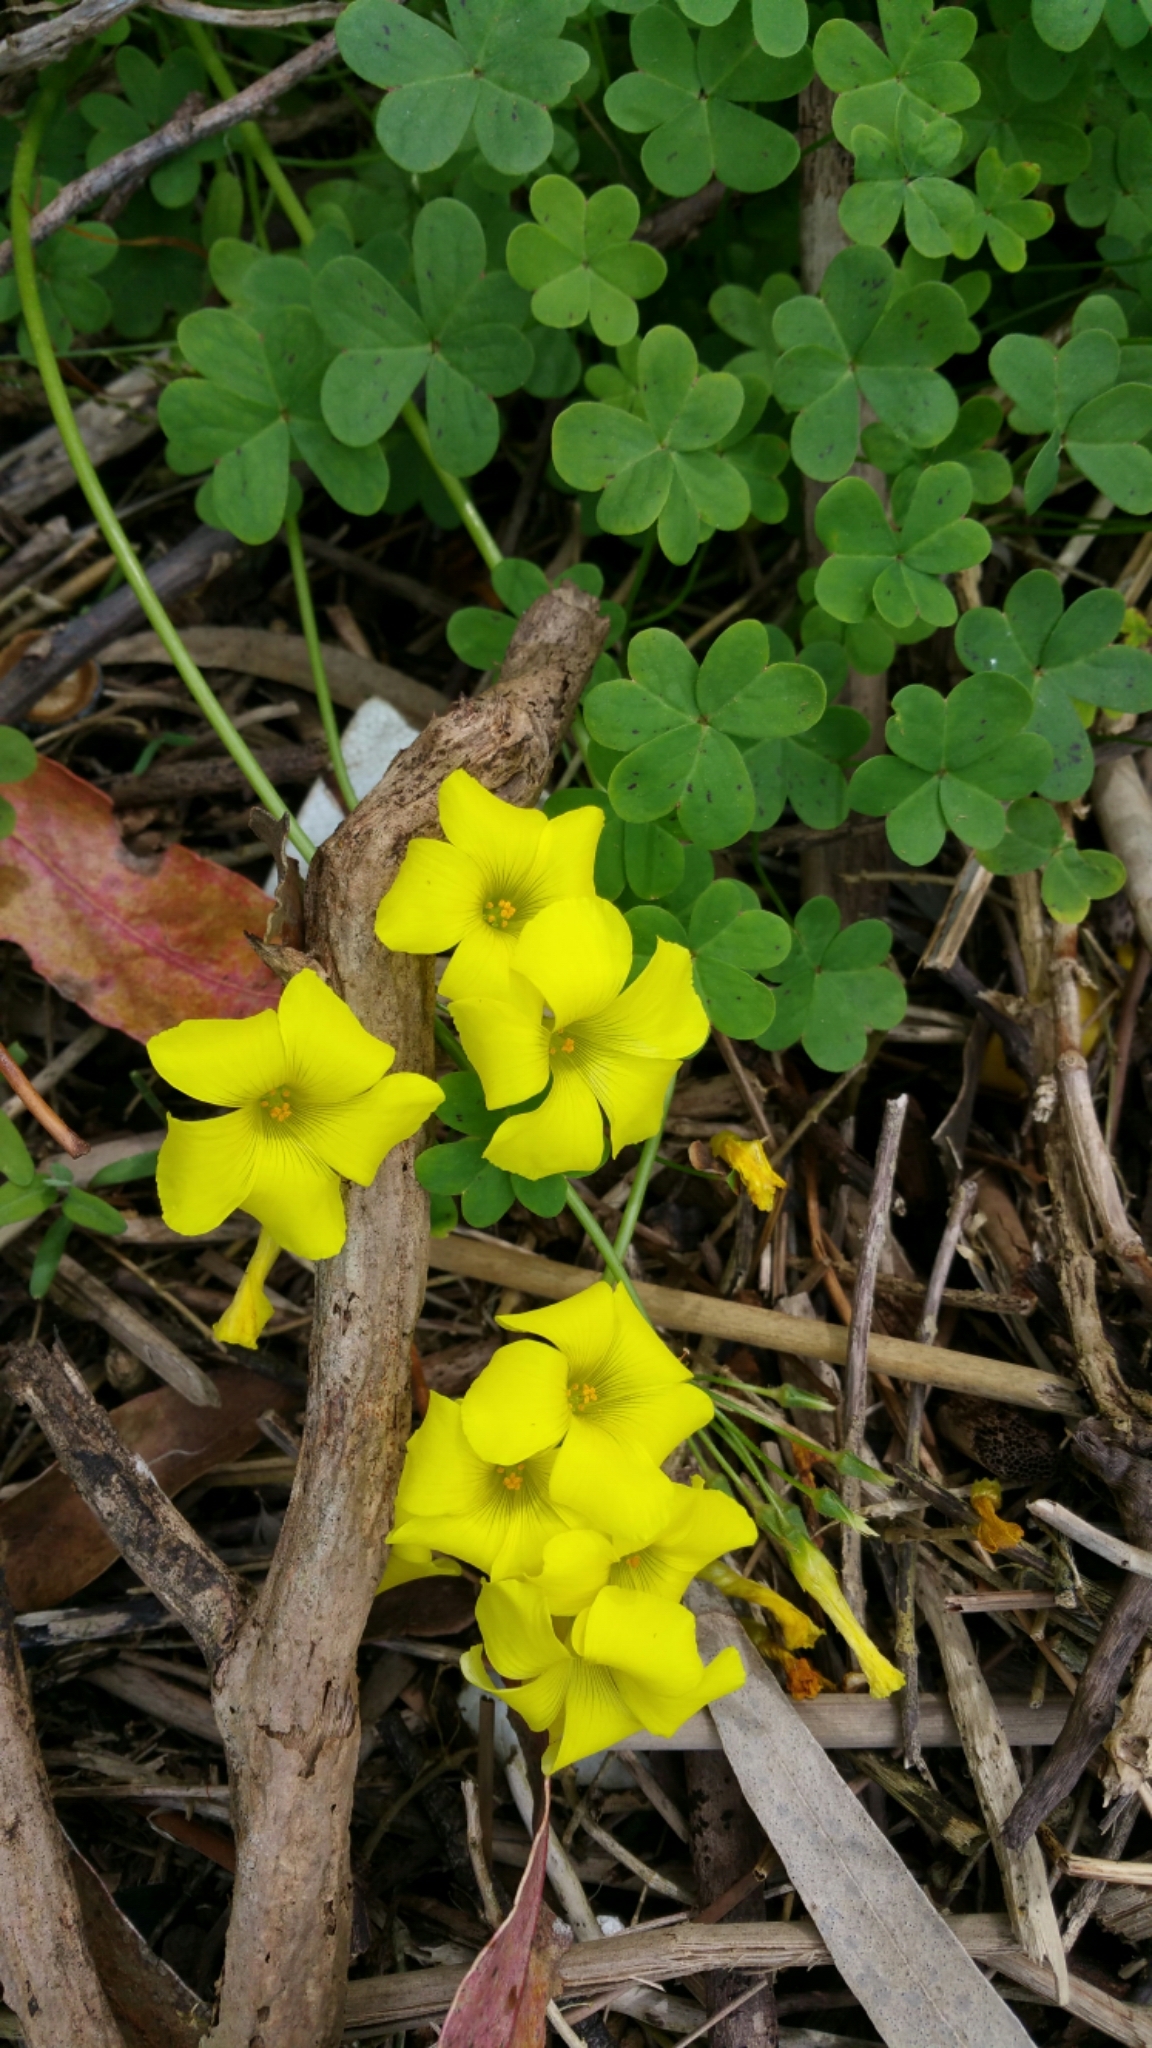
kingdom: Plantae
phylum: Tracheophyta
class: Magnoliopsida
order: Oxalidales
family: Oxalidaceae
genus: Oxalis
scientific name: Oxalis pes-caprae
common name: Bermuda-buttercup
